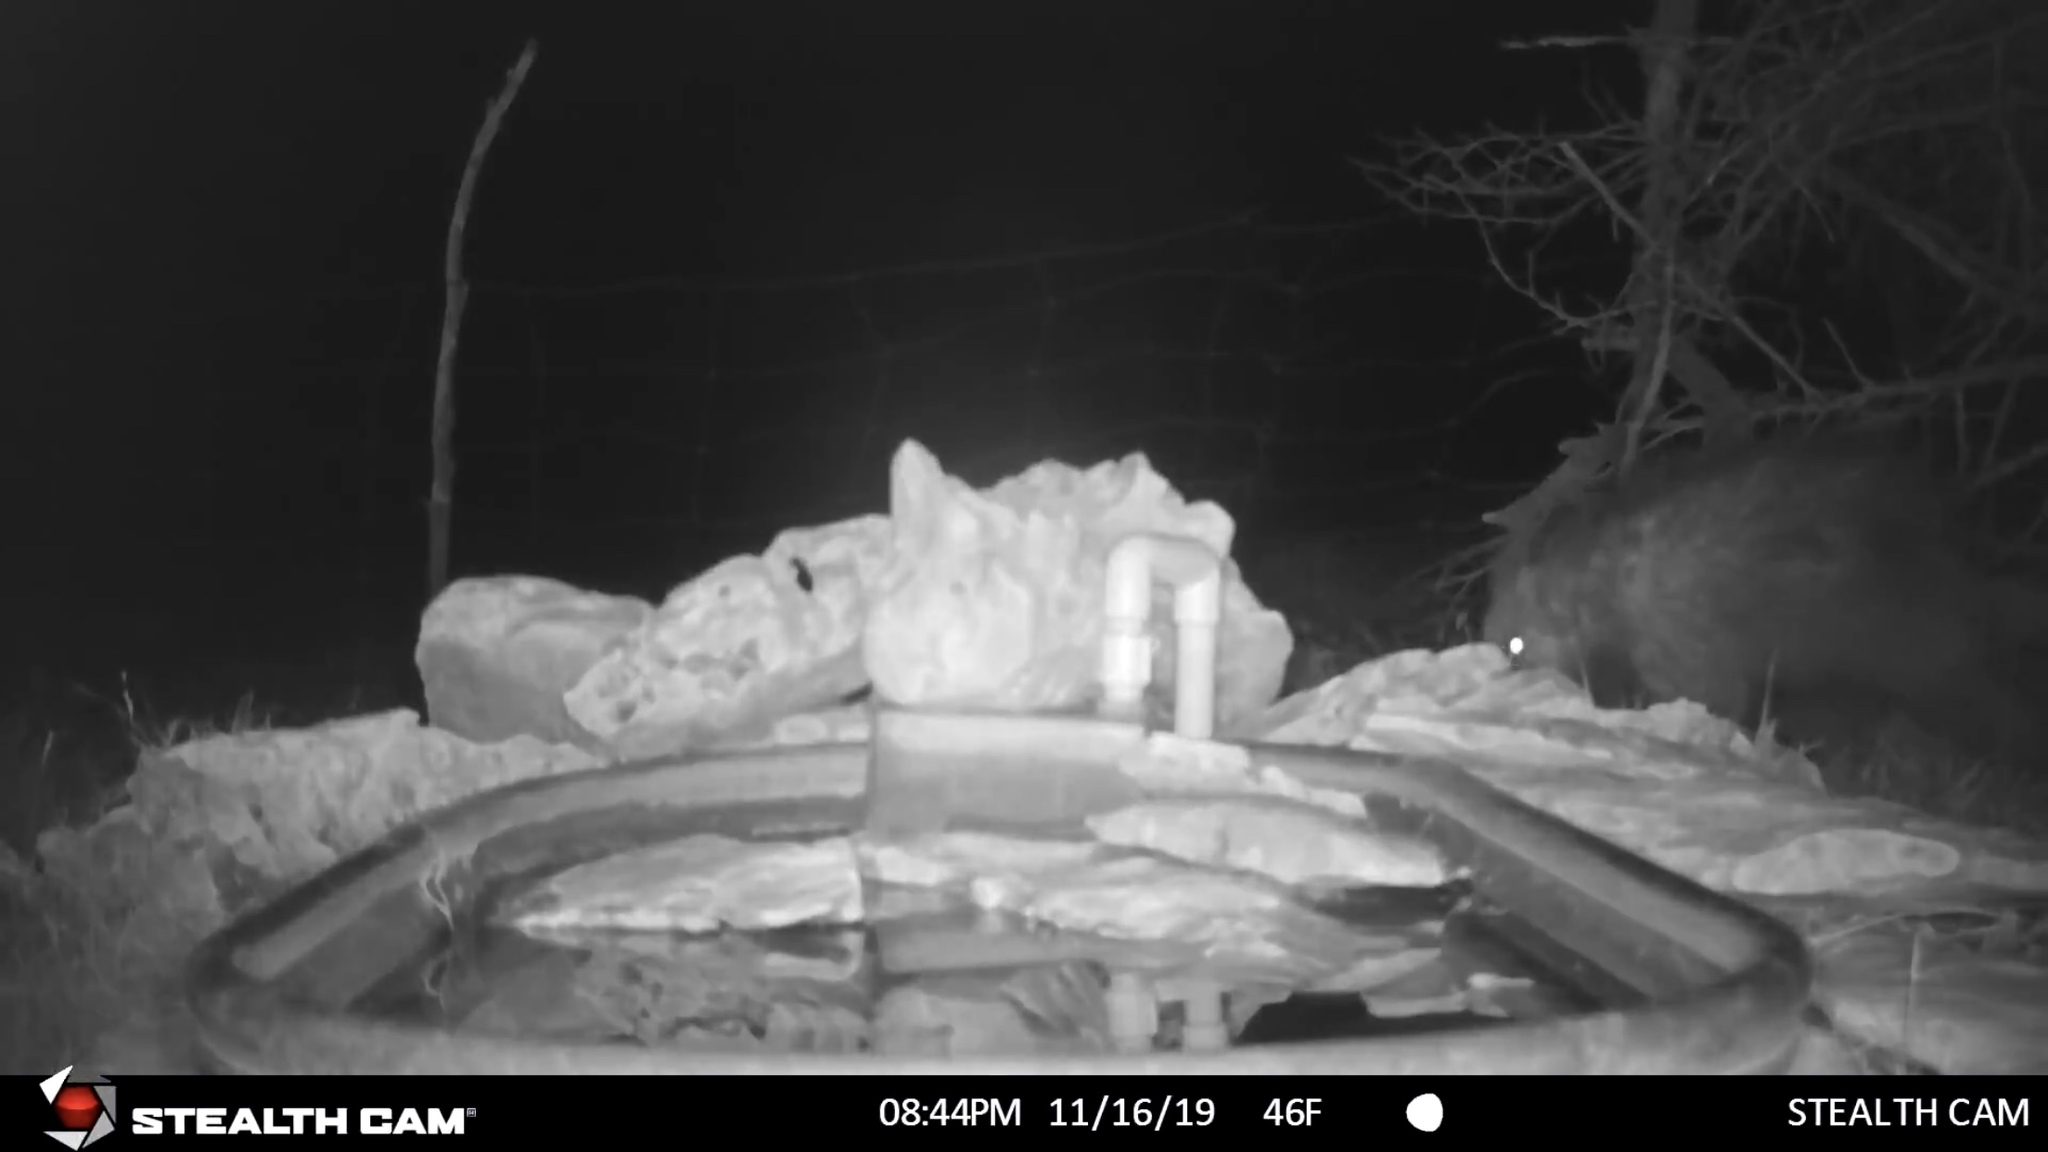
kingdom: Animalia
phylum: Chordata
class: Mammalia
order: Rodentia
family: Erethizontidae
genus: Erethizon
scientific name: Erethizon dorsatus
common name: North american porcupine
